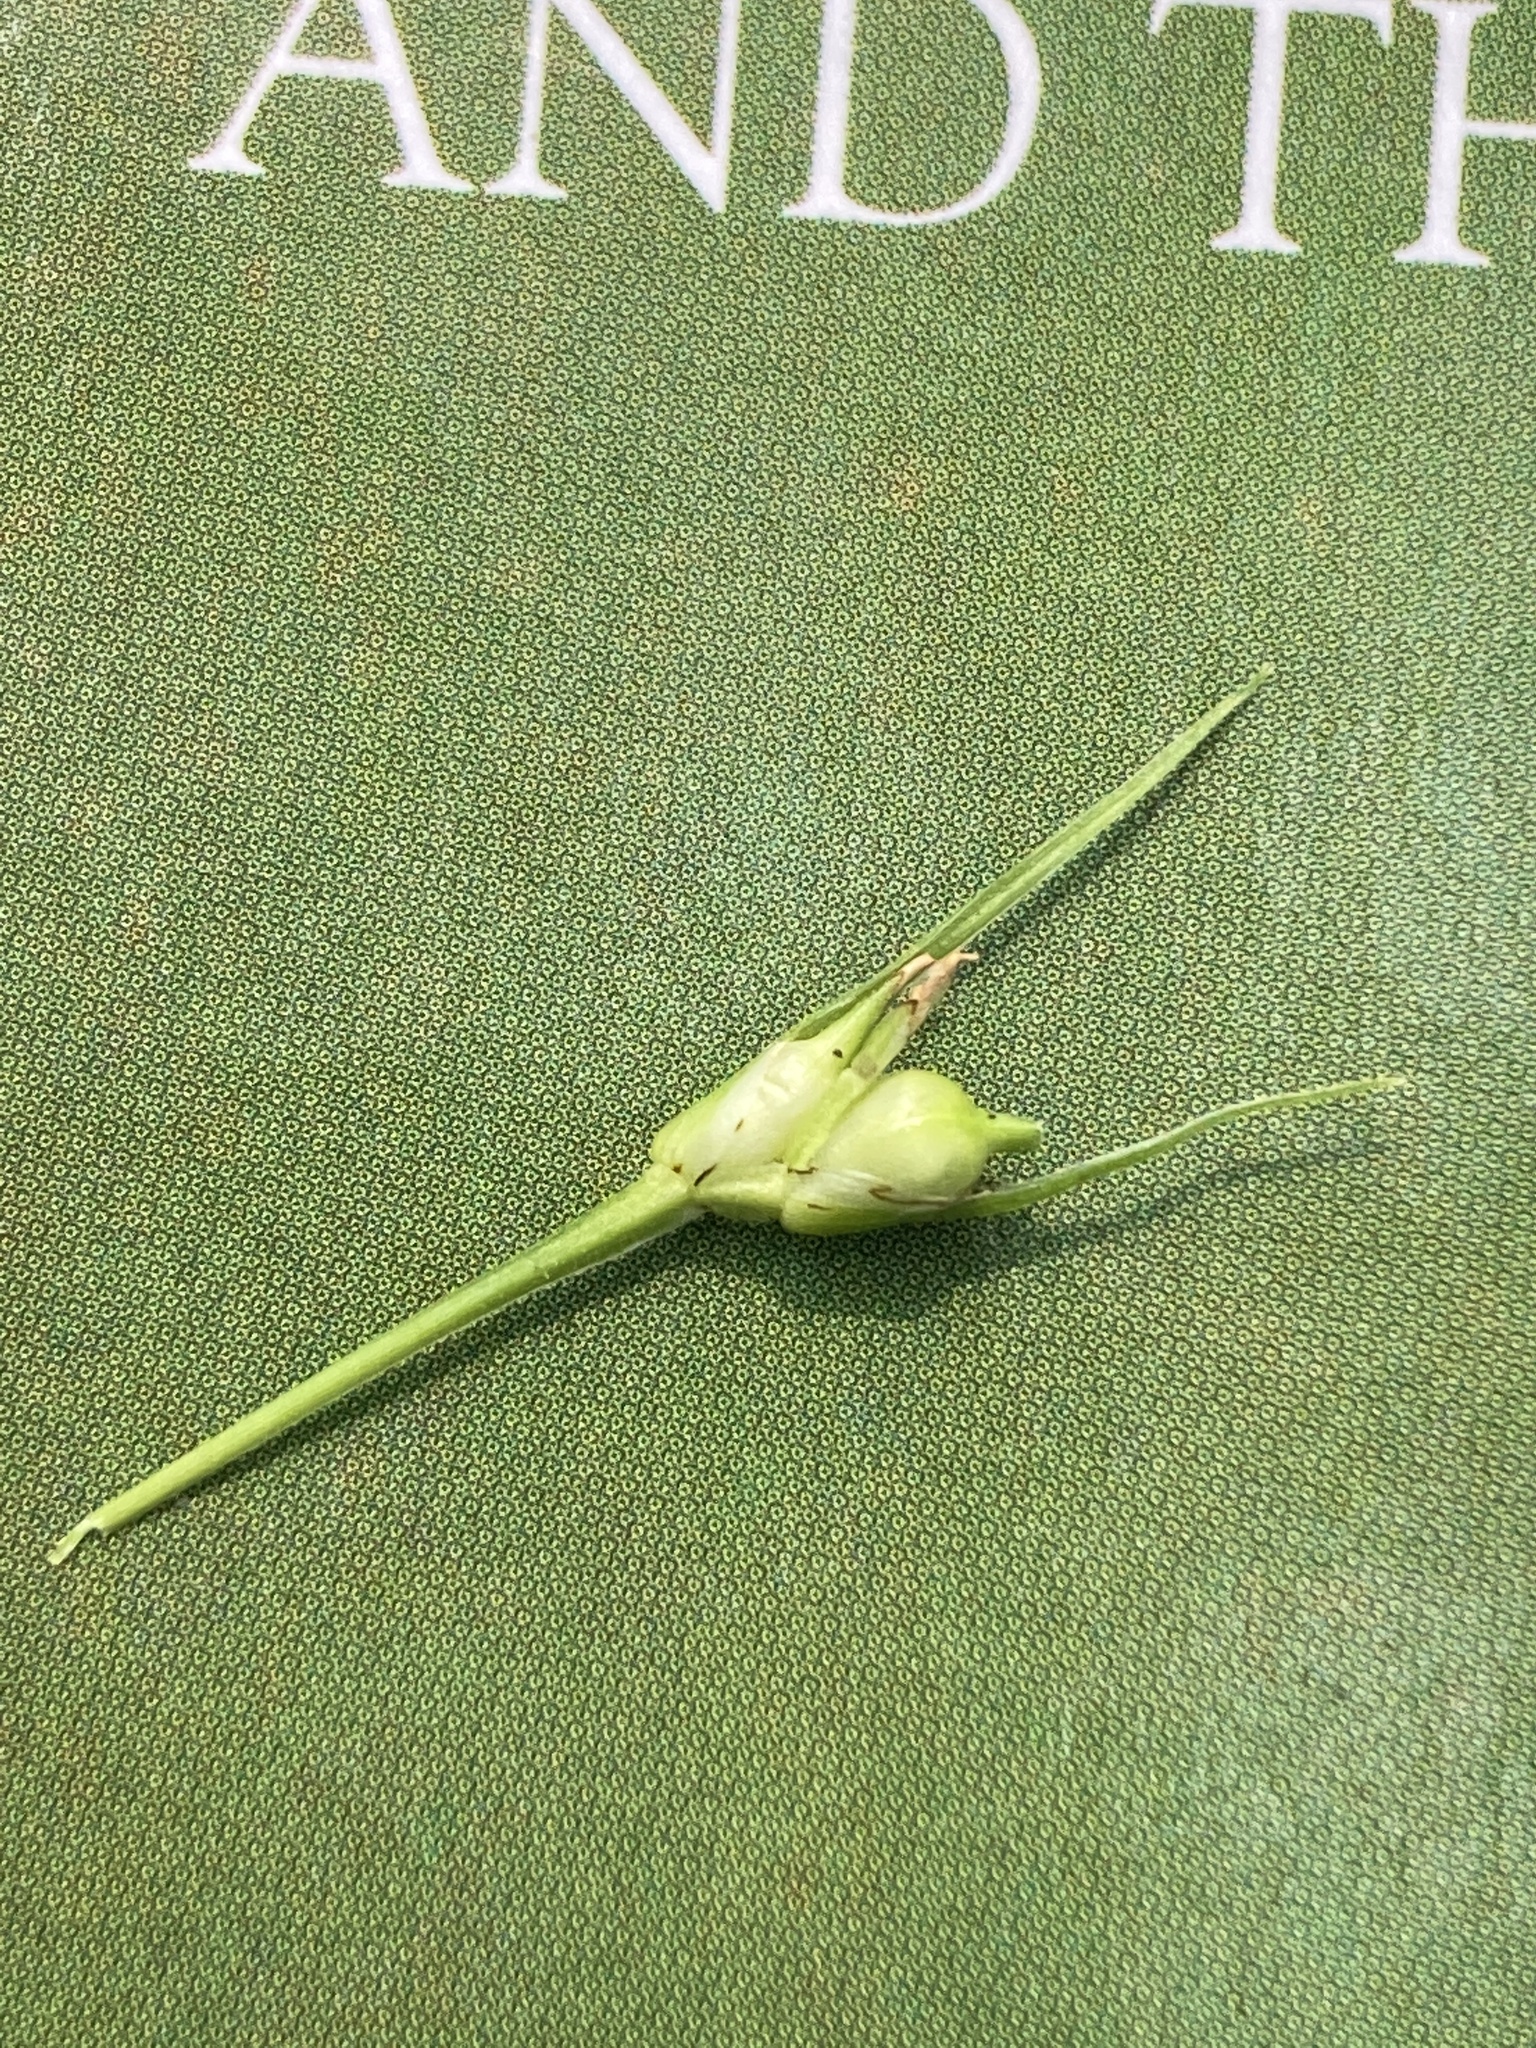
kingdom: Plantae
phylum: Tracheophyta
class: Liliopsida
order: Poales
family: Cyperaceae
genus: Carex
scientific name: Carex jamesii
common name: Grass sedge
